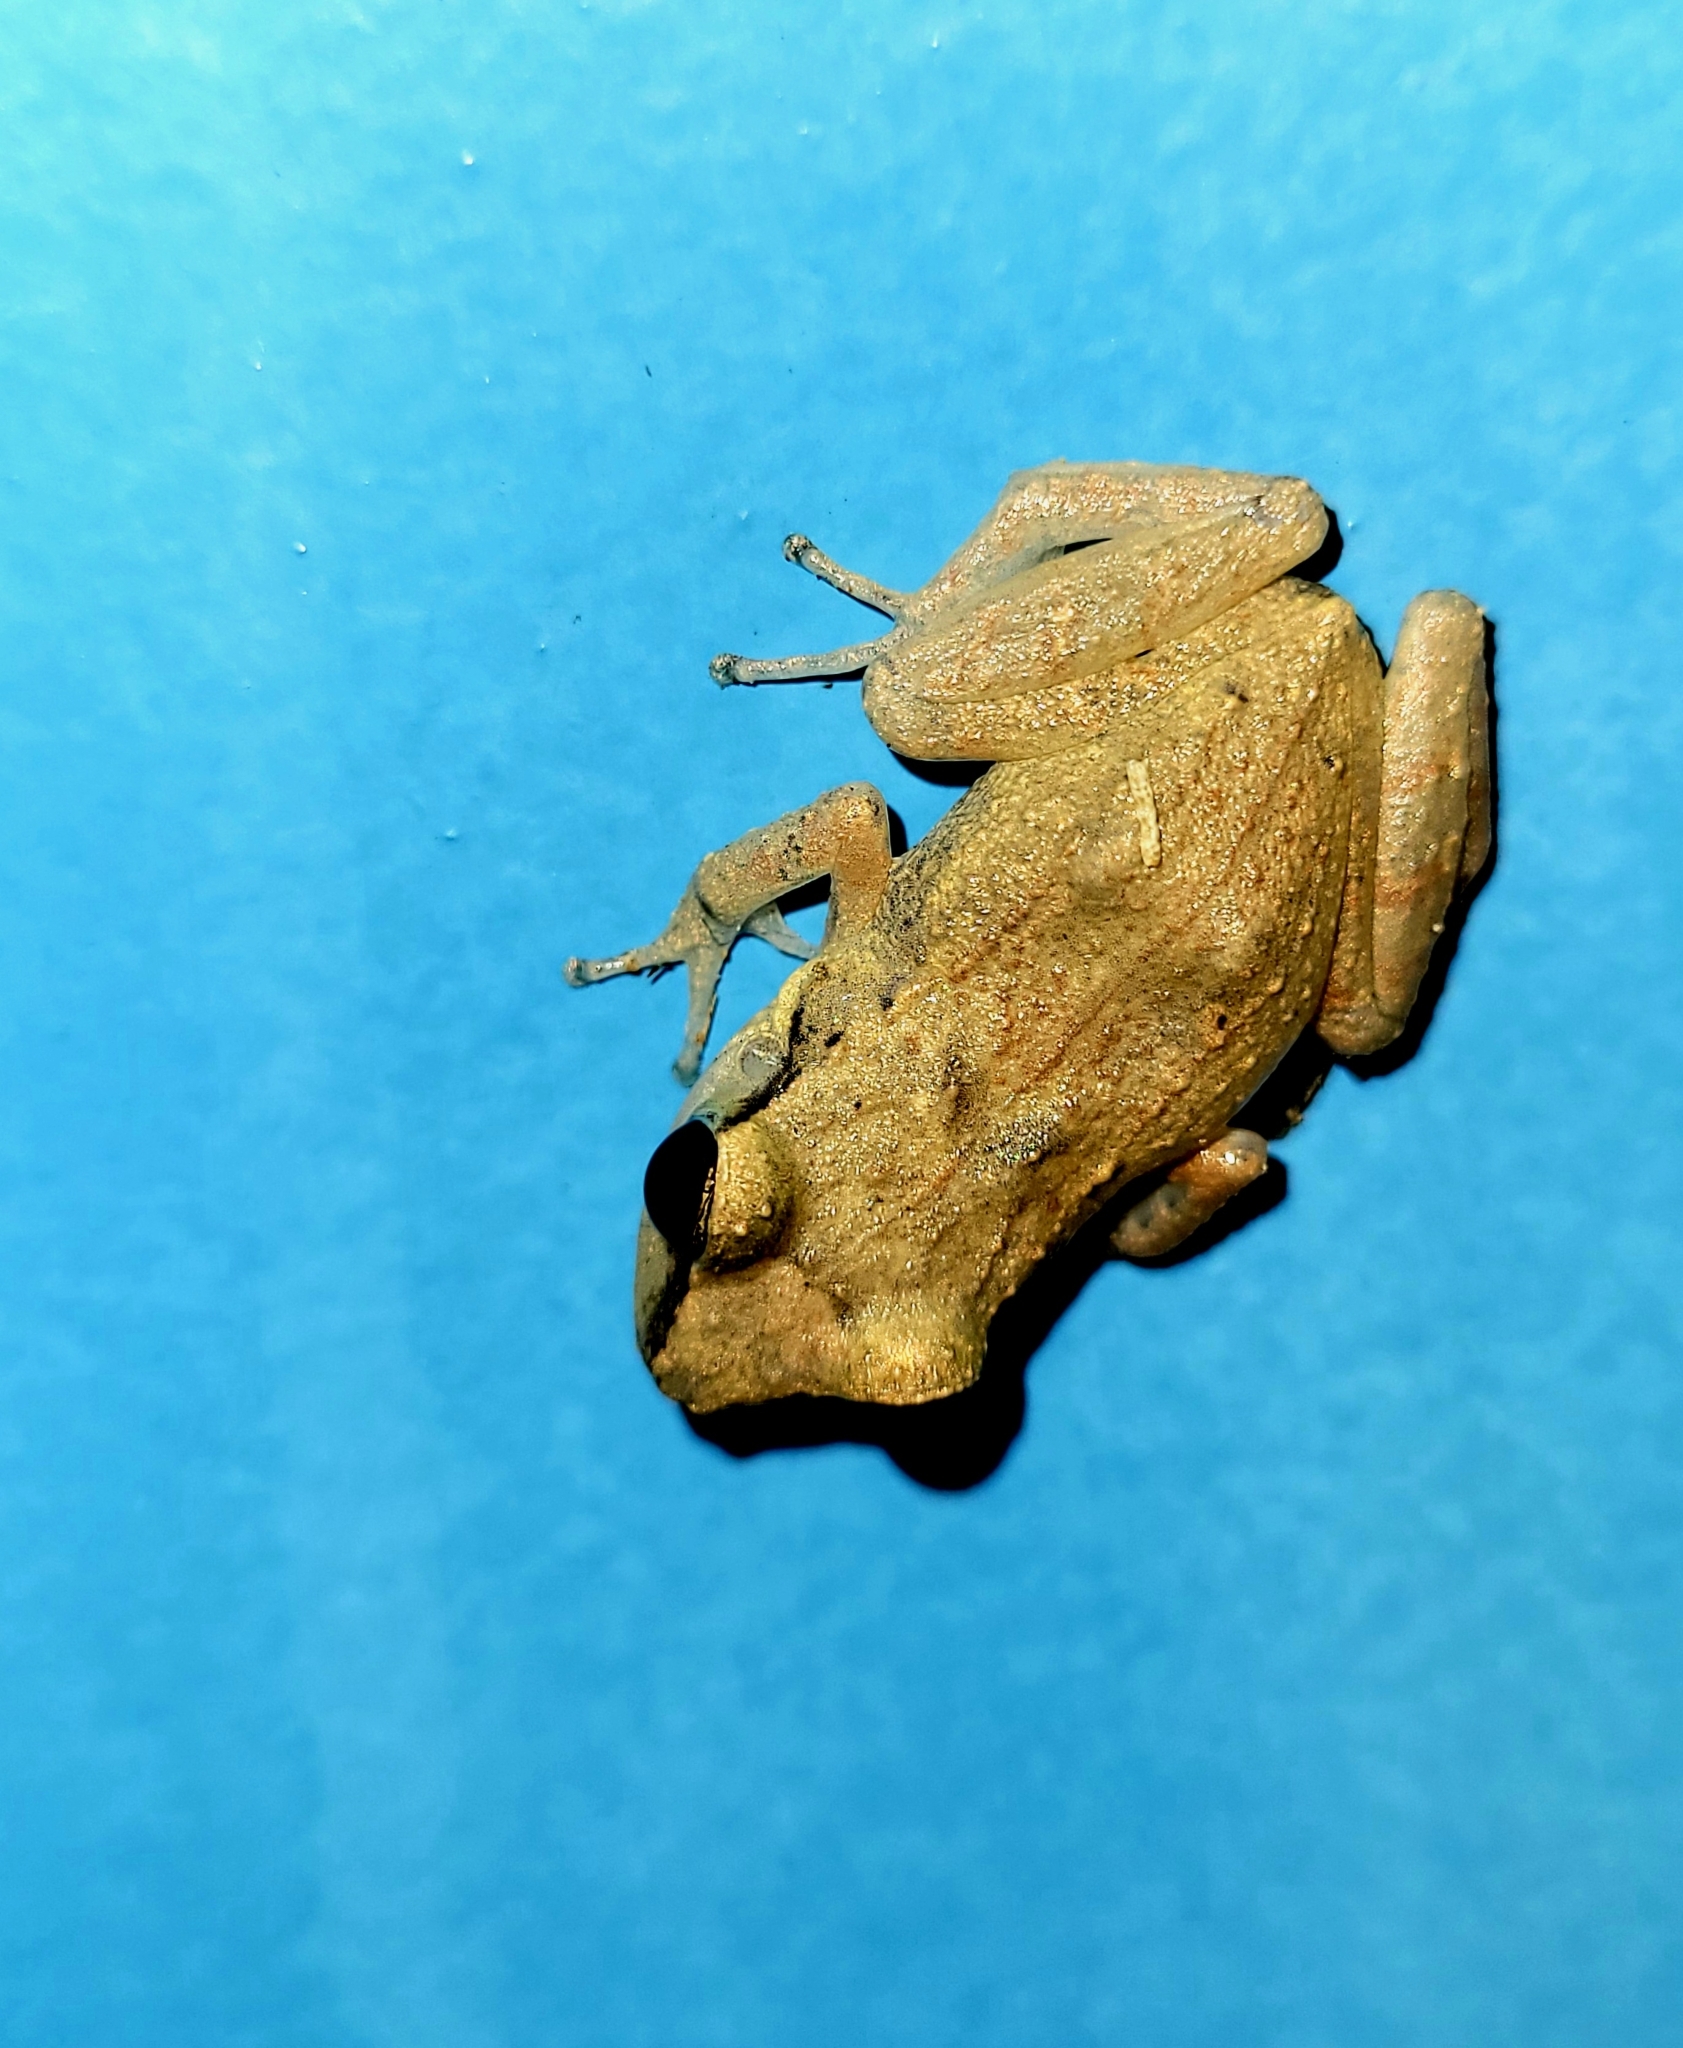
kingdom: Animalia
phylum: Chordata
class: Amphibia
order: Anura
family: Eleutherodactylidae
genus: Eleutherodactylus
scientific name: Eleutherodactylus johnstonei
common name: Johnstone's robber frog
